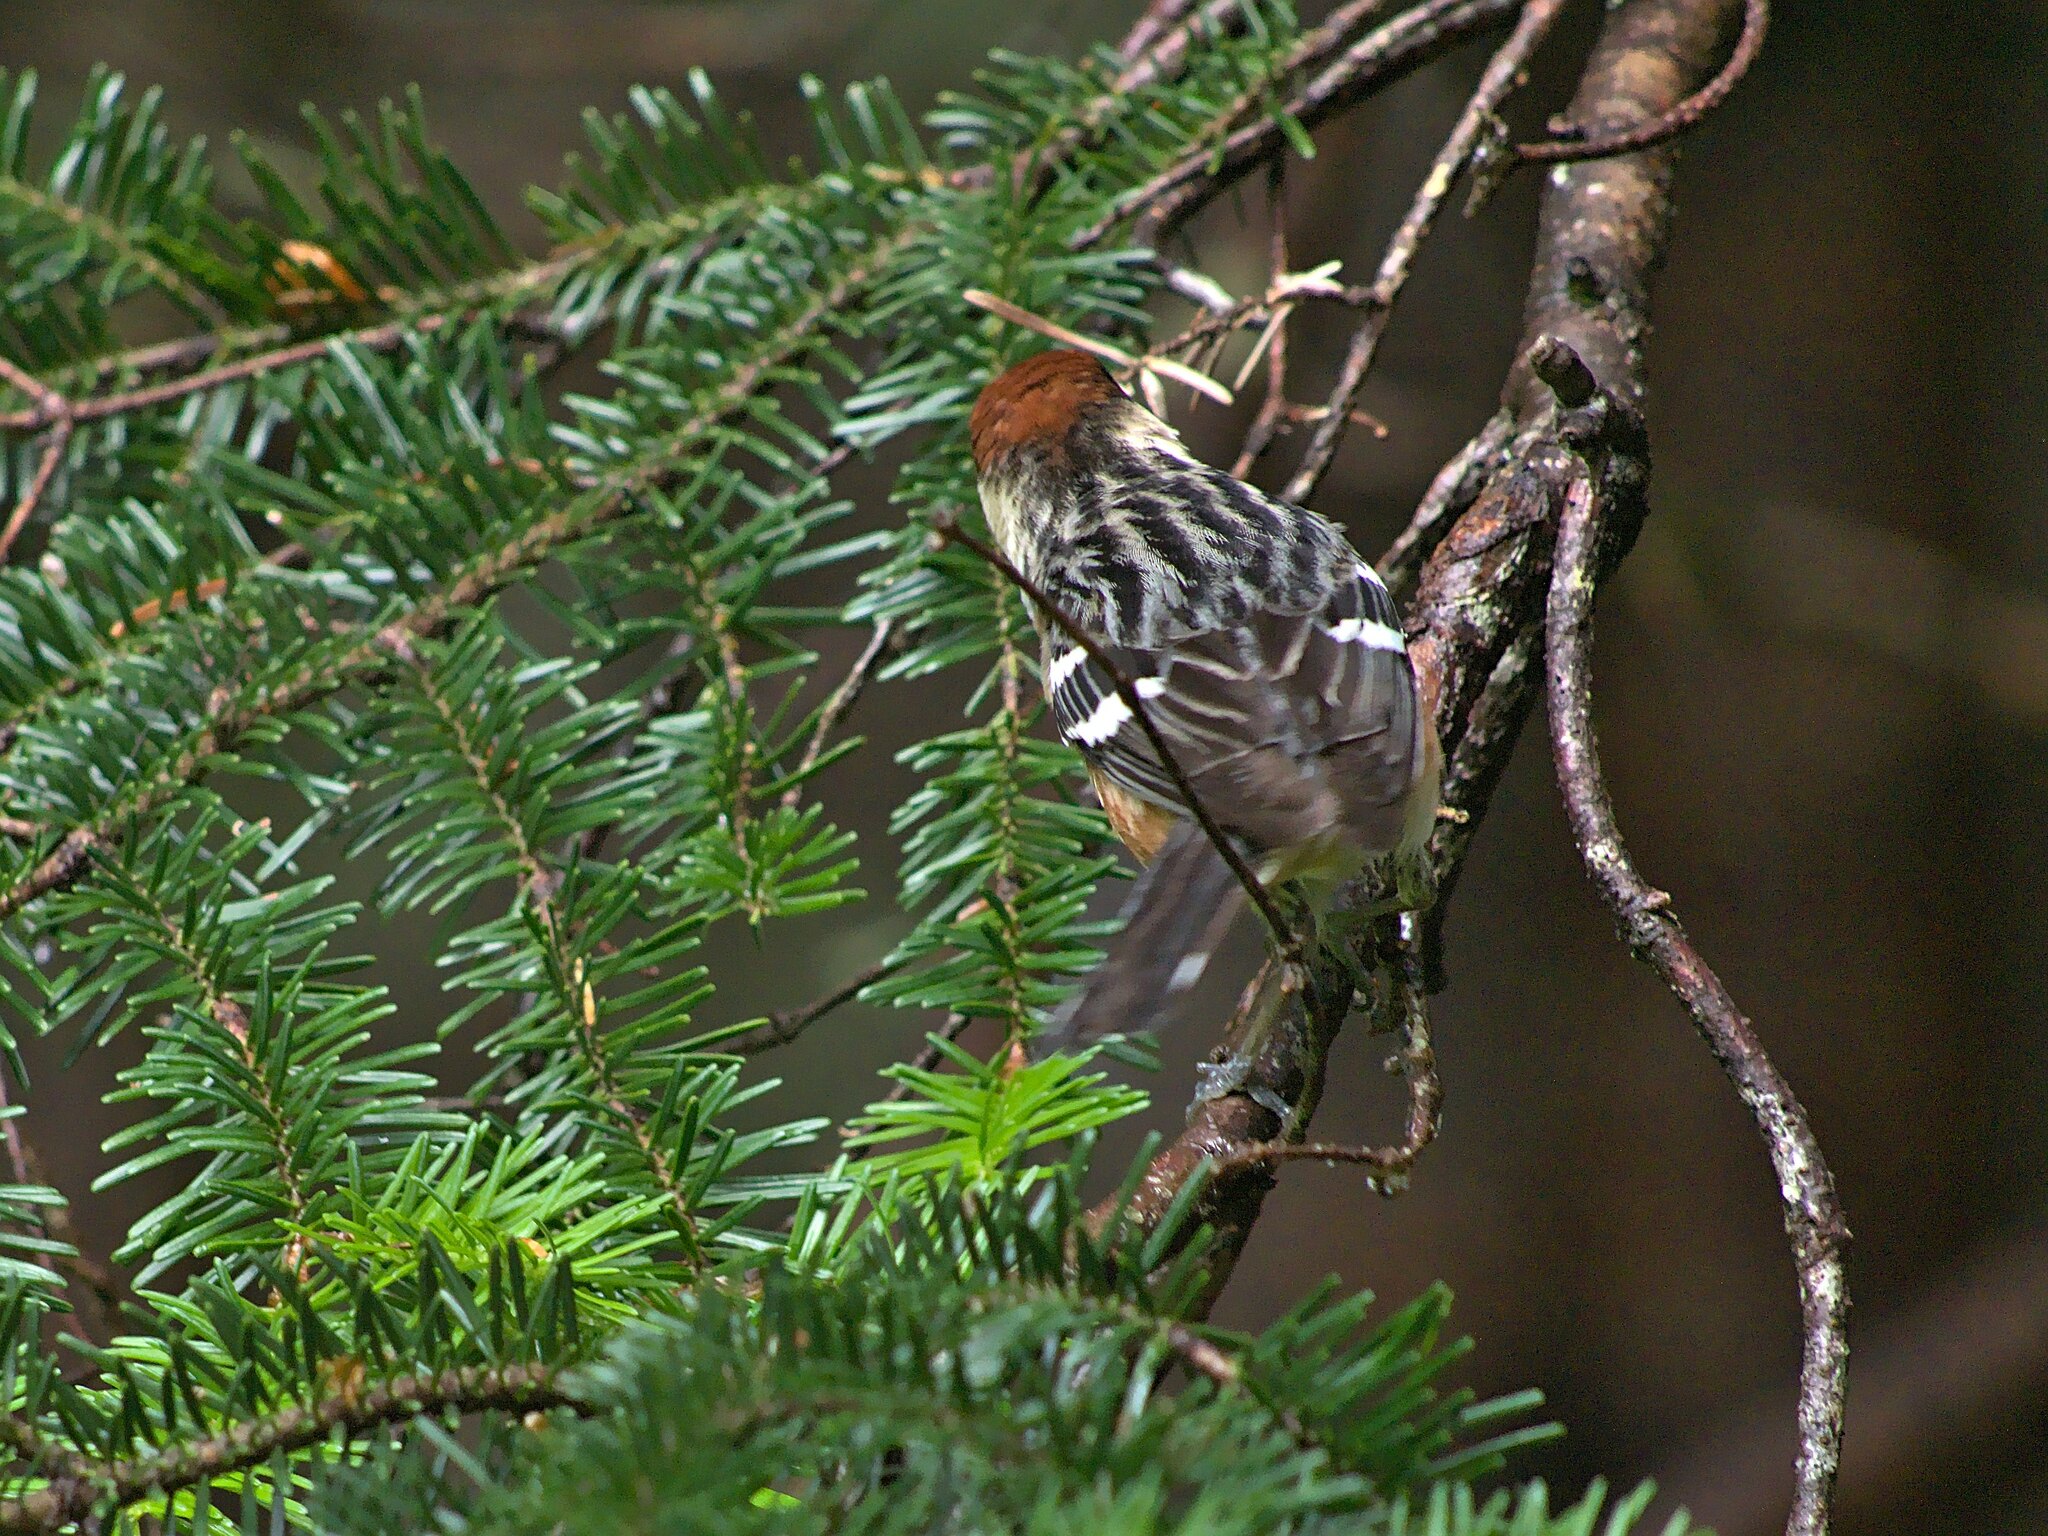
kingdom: Animalia
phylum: Chordata
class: Aves
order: Passeriformes
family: Parulidae
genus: Setophaga
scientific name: Setophaga castanea
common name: Bay-breasted warbler
